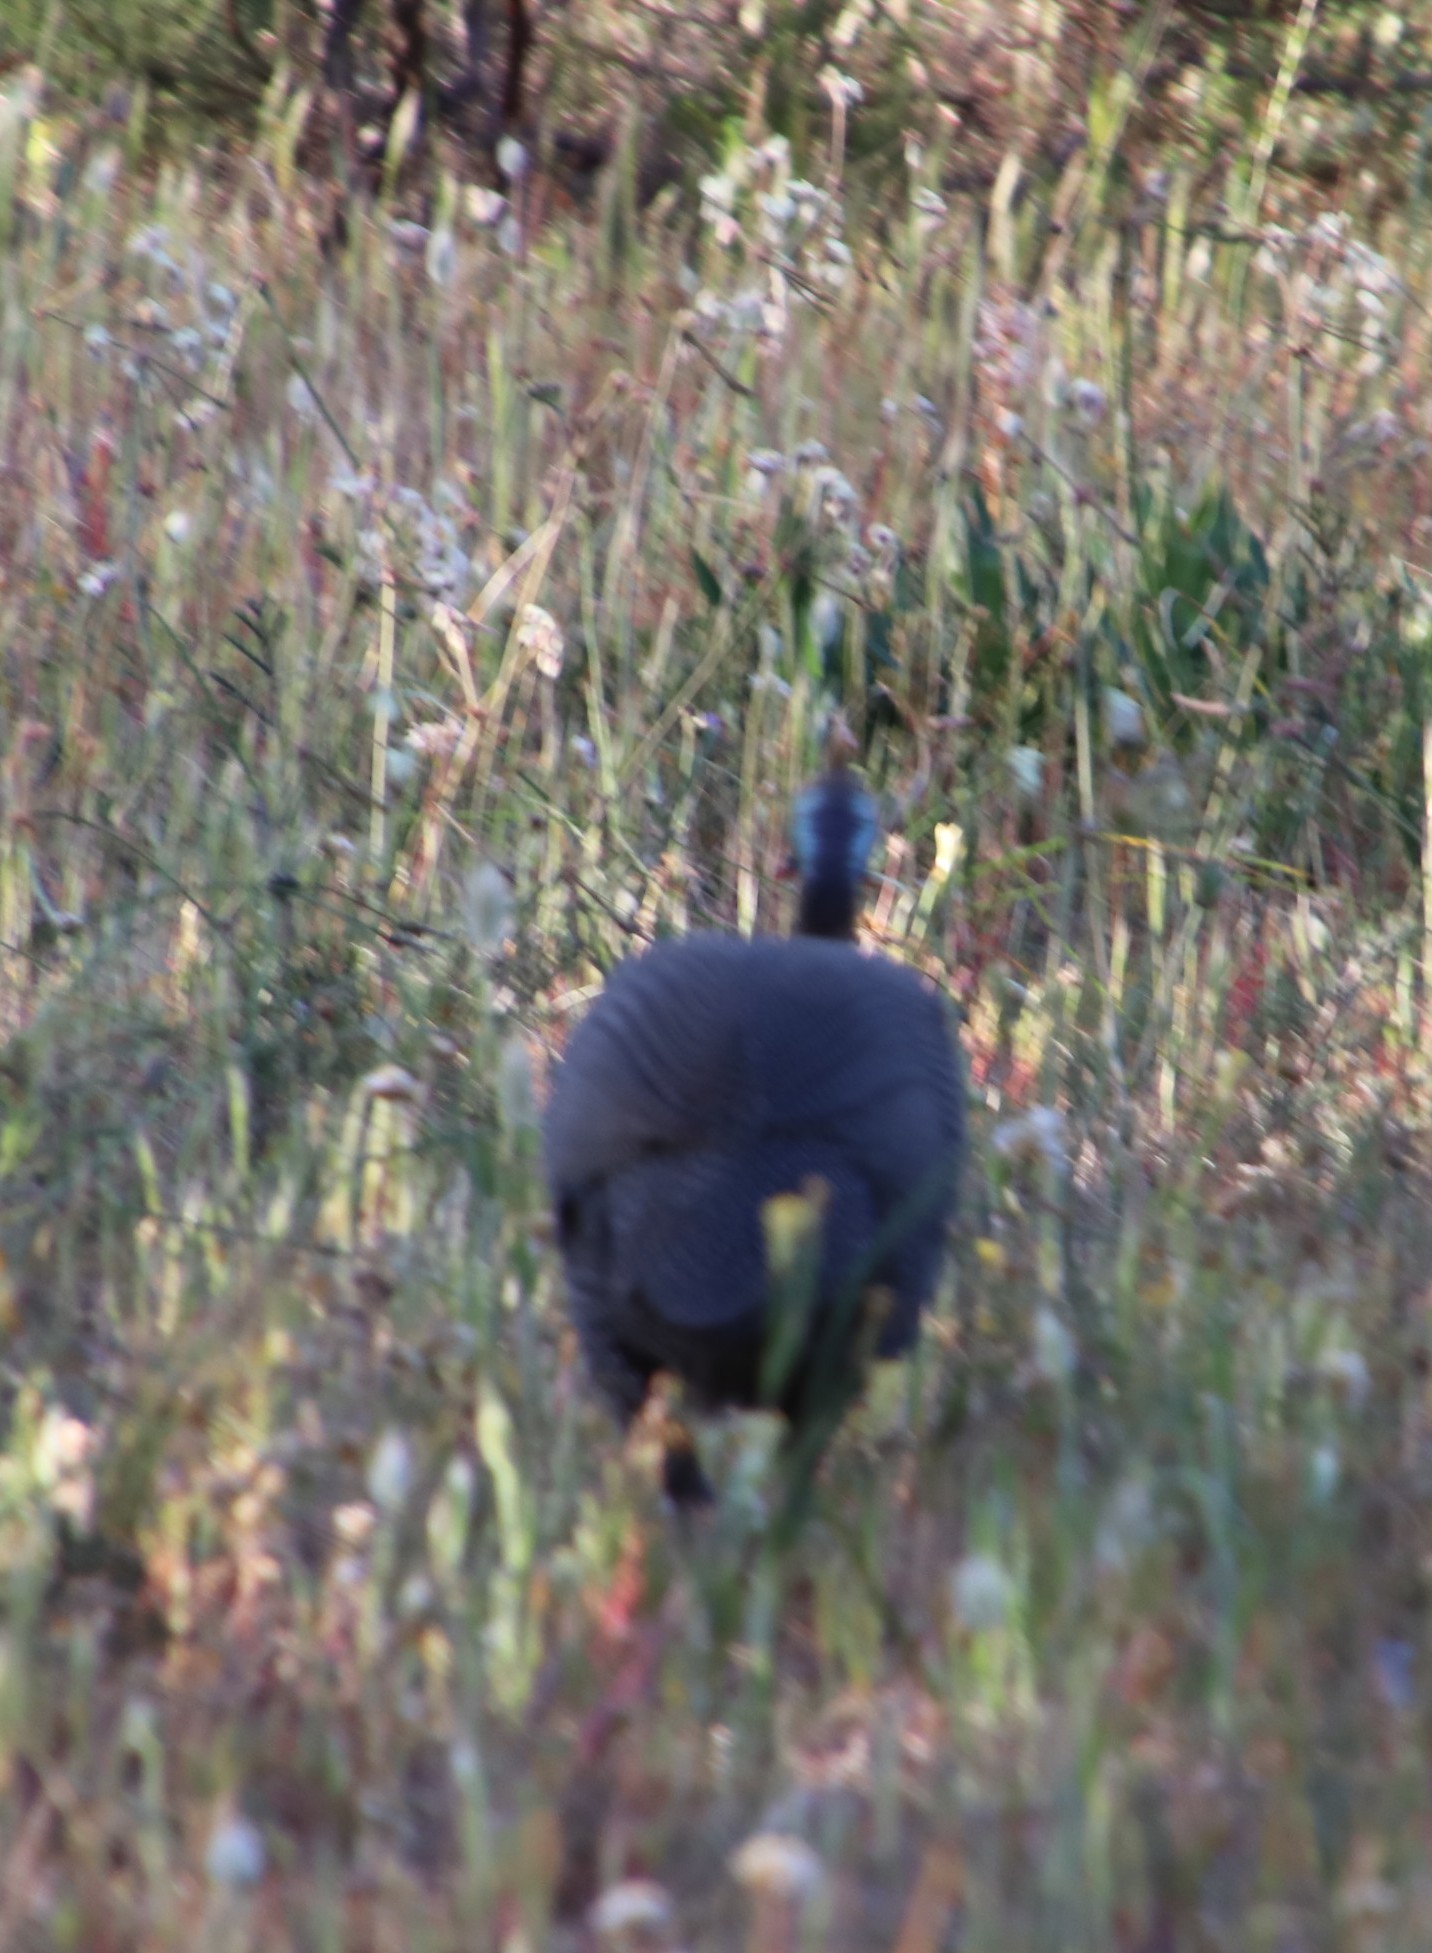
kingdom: Animalia
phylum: Chordata
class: Aves
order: Galliformes
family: Numididae
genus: Numida
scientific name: Numida meleagris
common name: Helmeted guineafowl
